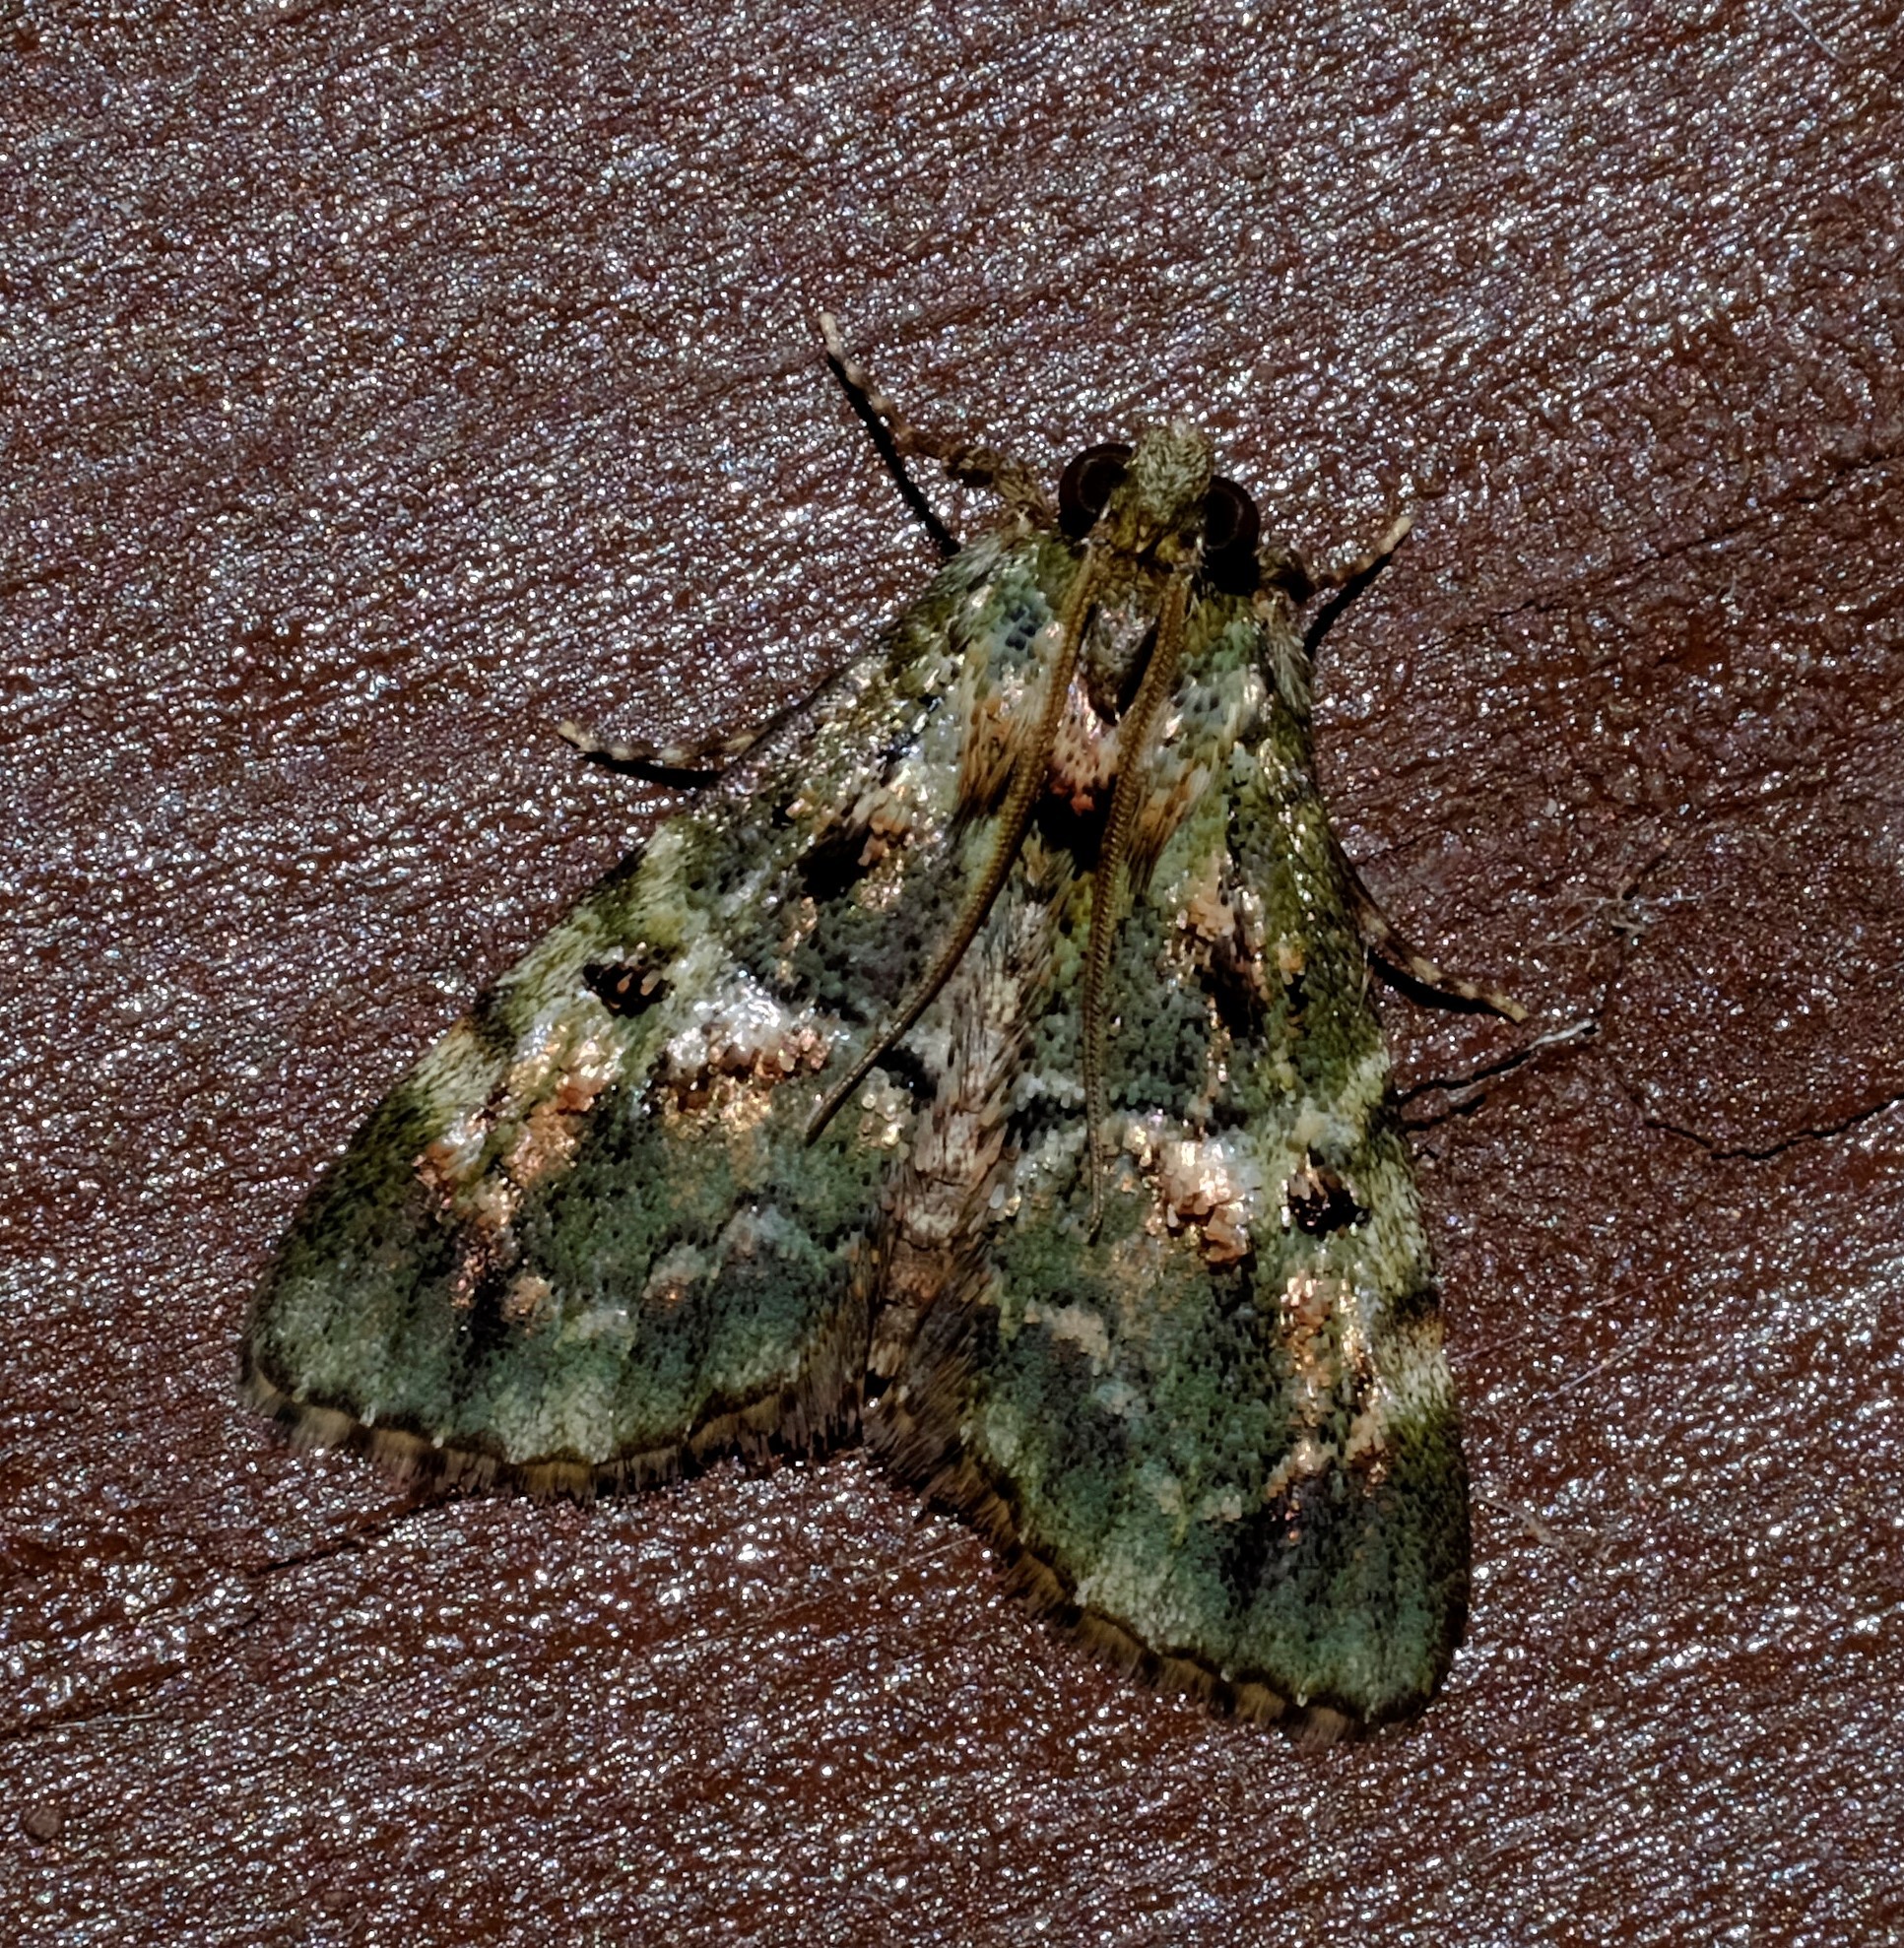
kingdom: Animalia
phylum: Arthropoda
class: Insecta
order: Lepidoptera
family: Pyralidae
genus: Orthaga
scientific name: Orthaga thyrisalis
